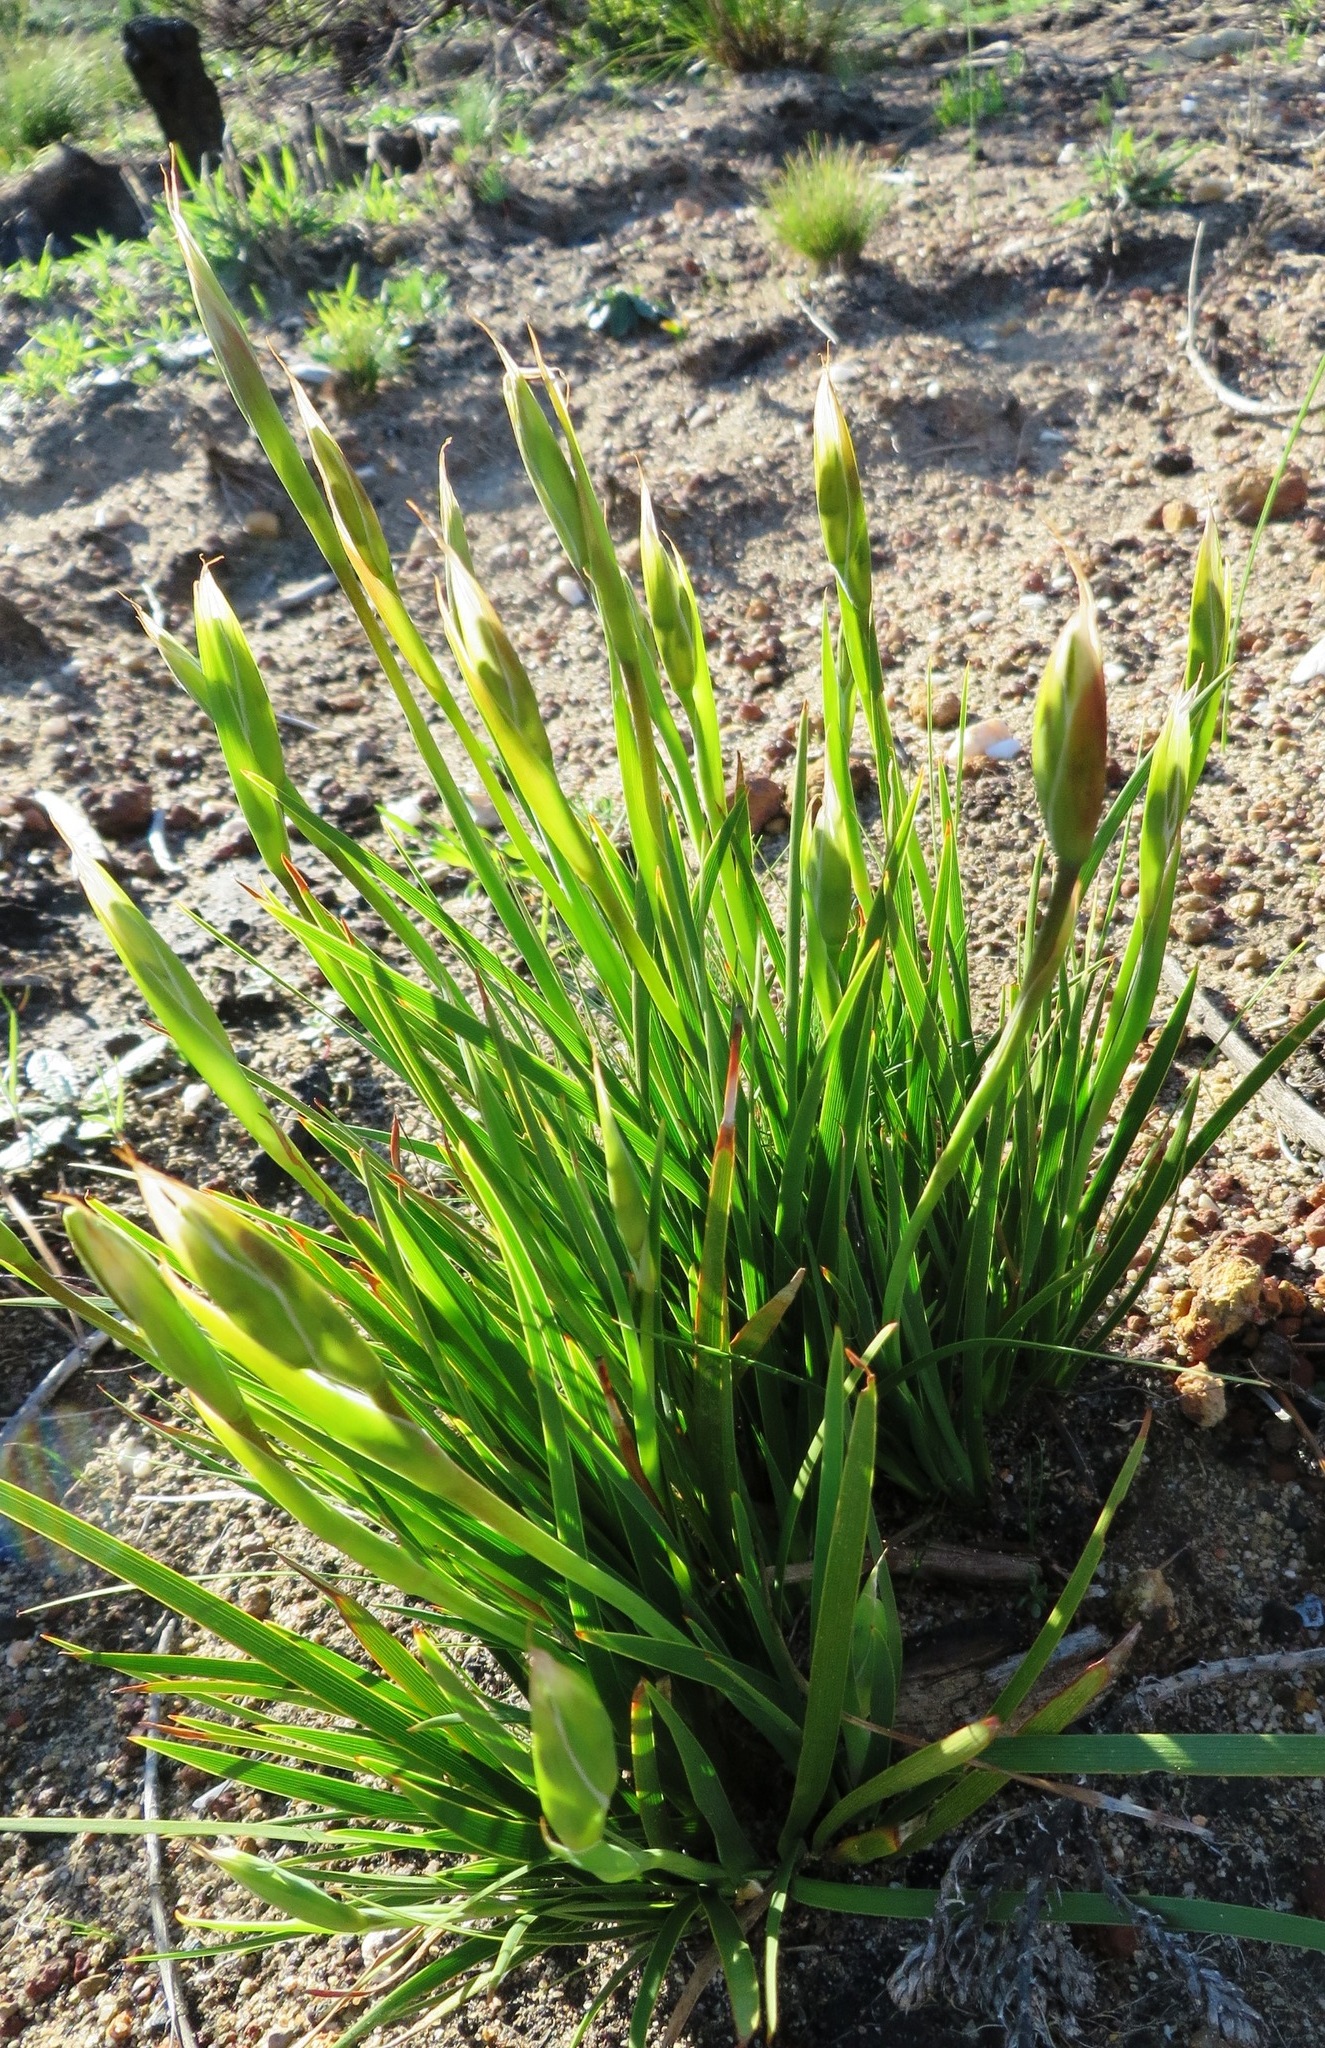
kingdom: Plantae
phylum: Tracheophyta
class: Liliopsida
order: Asparagales
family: Iridaceae
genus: Aristea
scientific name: Aristea cantharophila
